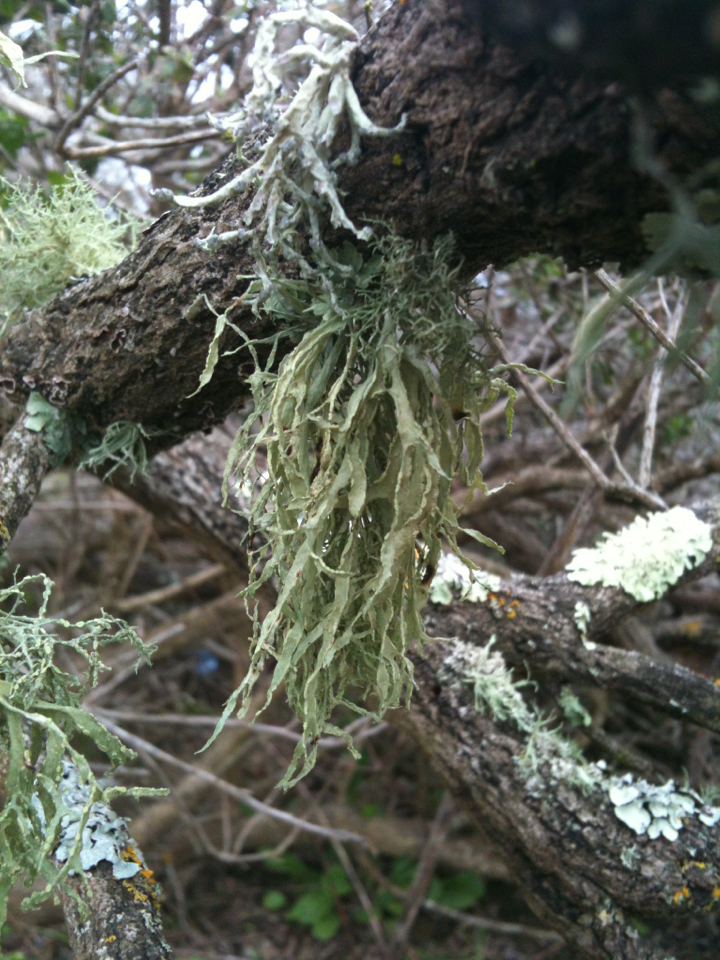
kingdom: Fungi
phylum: Ascomycota
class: Lecanoromycetes
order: Lecanorales
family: Ramalinaceae
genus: Ramalina
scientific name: Ramalina farinacea
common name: Farinose cartilage lichen
